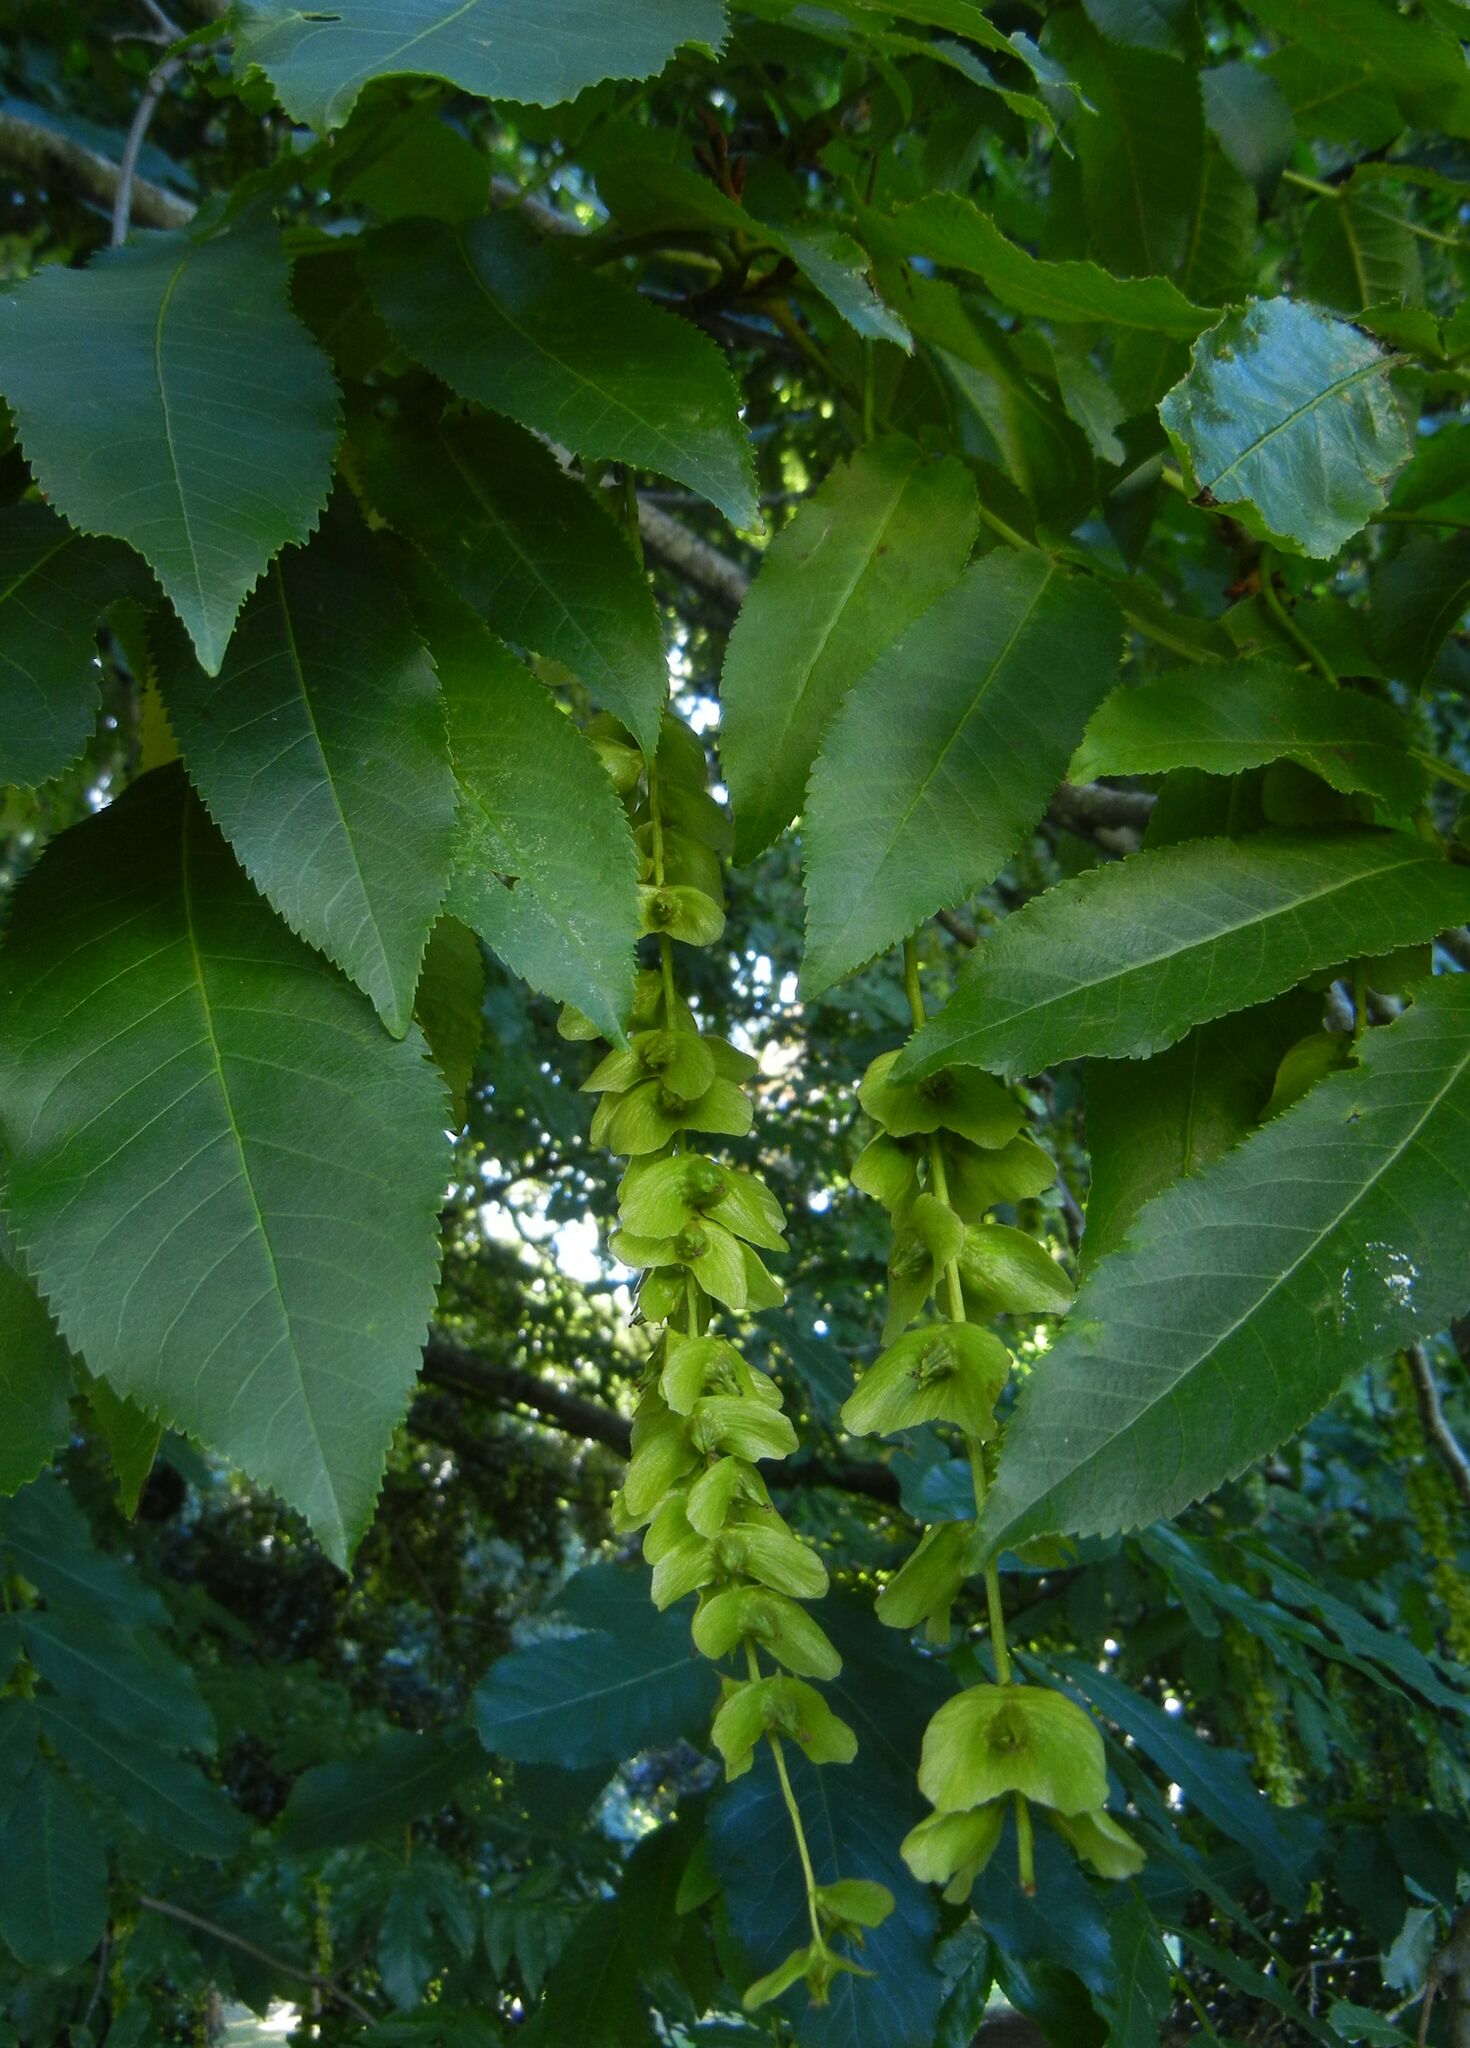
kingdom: Plantae
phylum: Tracheophyta
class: Magnoliopsida
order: Fagales
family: Juglandaceae
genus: Pterocarya
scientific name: Pterocarya fraxinifolia
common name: Caucasian wingnut
